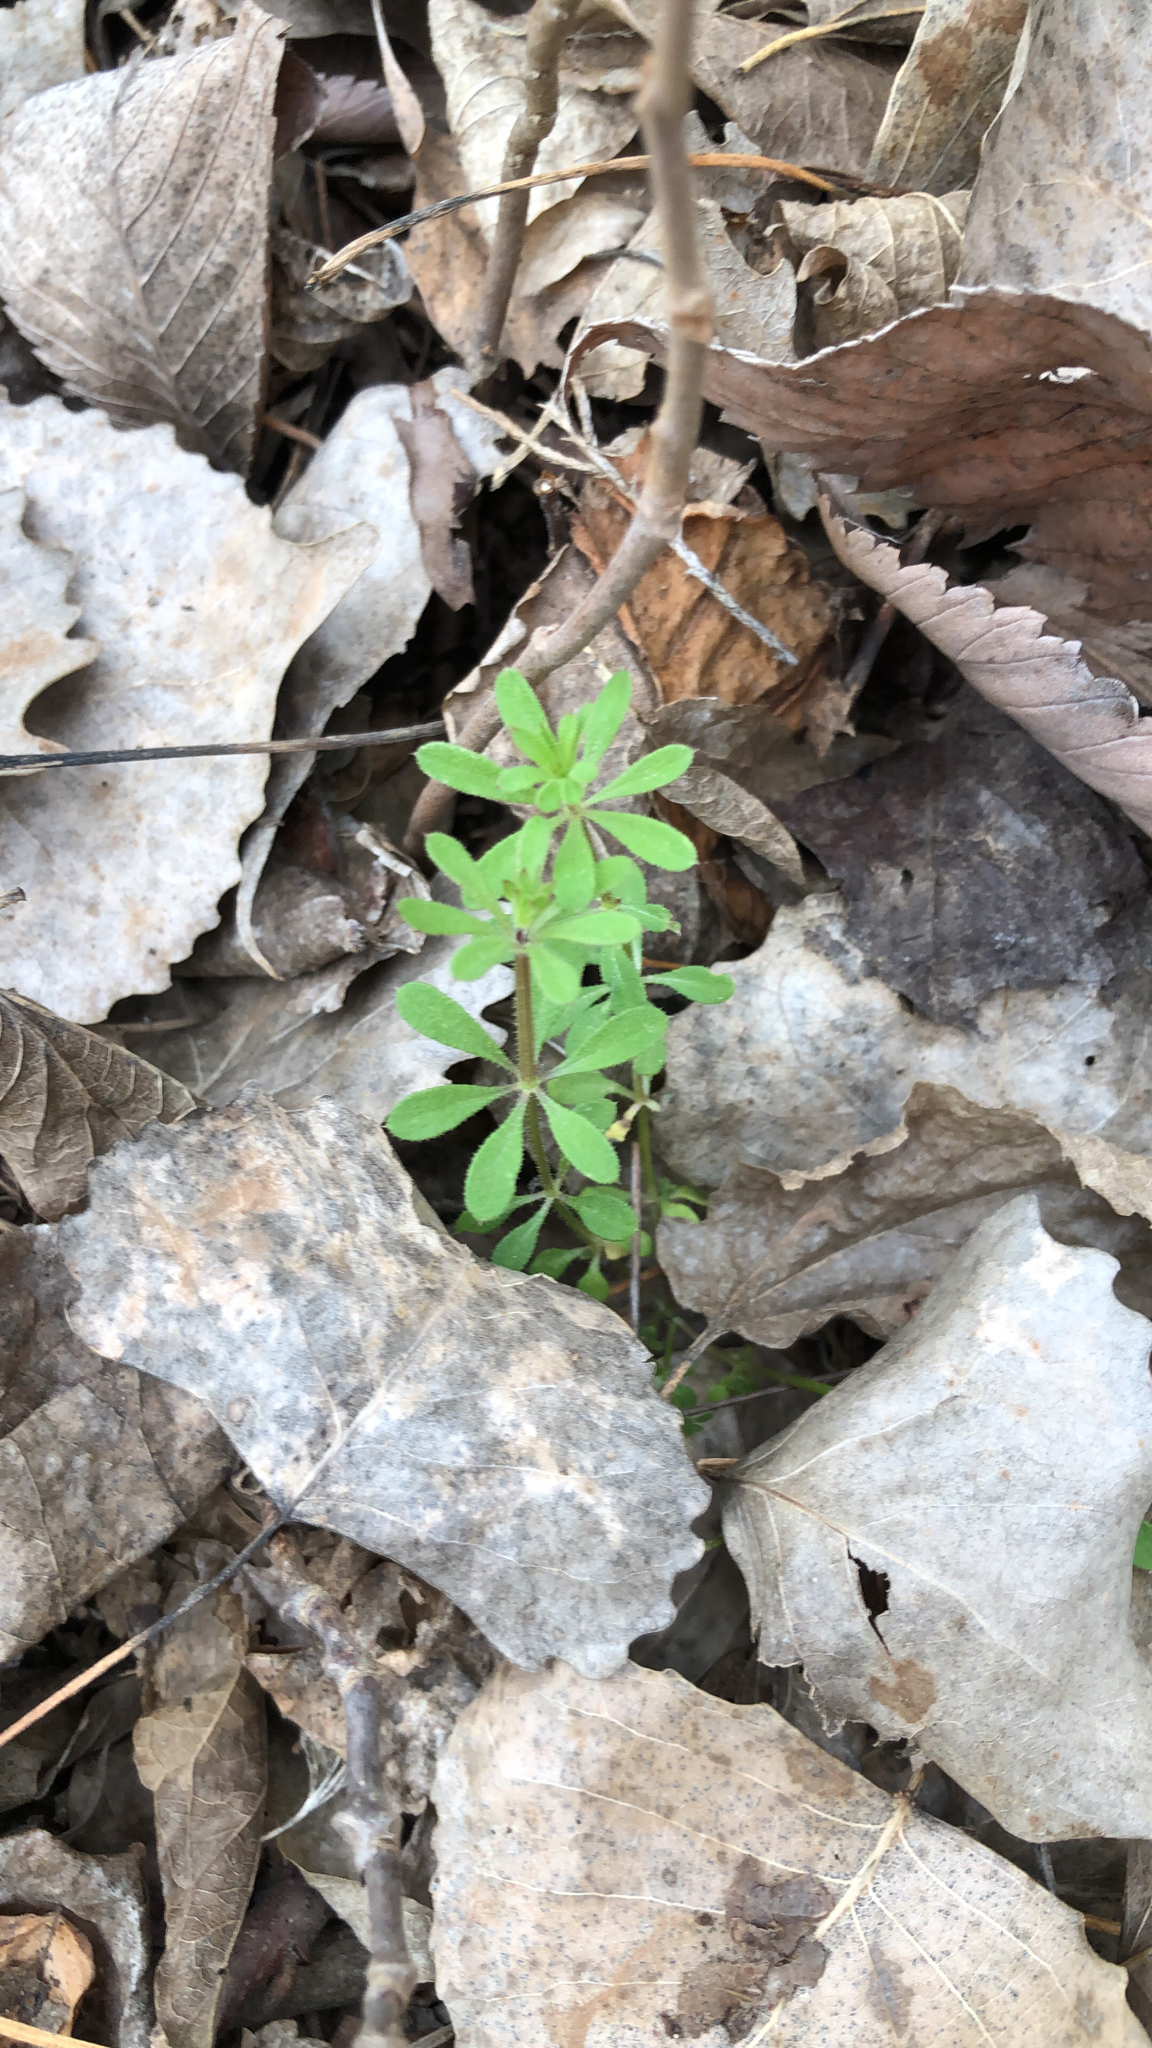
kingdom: Plantae
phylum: Tracheophyta
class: Magnoliopsida
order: Gentianales
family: Rubiaceae
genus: Galium
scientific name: Galium aparine
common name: Cleavers
